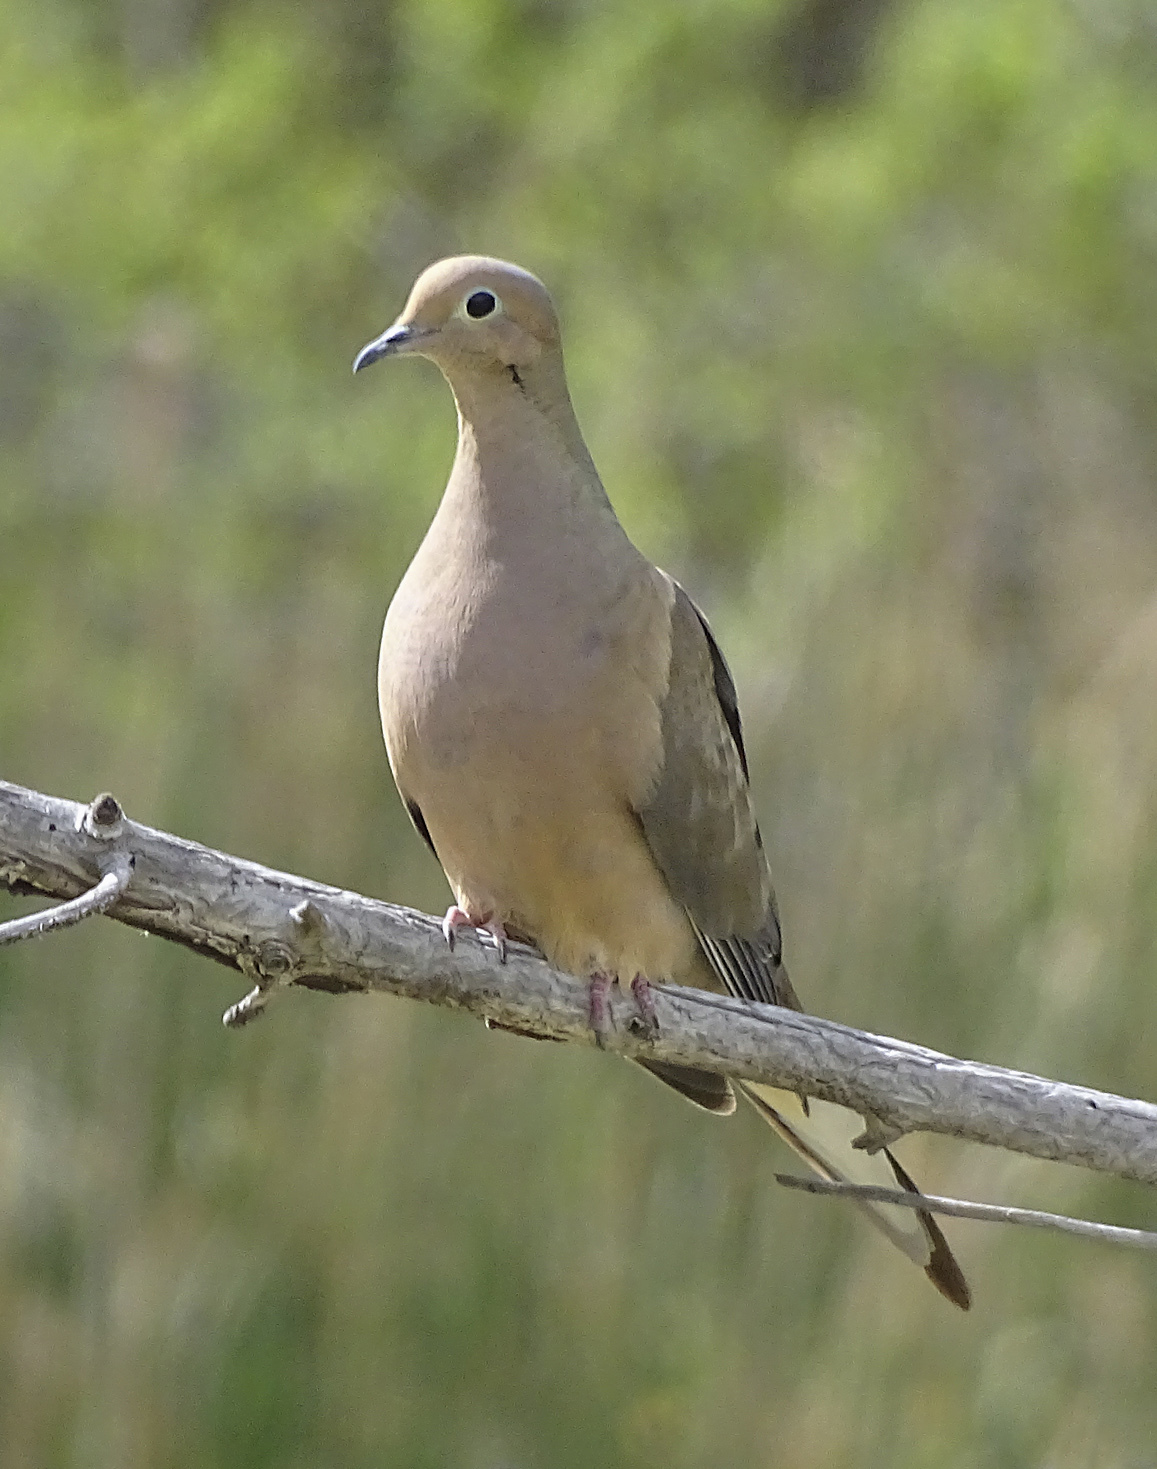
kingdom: Animalia
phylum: Chordata
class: Aves
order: Columbiformes
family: Columbidae
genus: Zenaida
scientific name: Zenaida macroura
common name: Mourning dove
